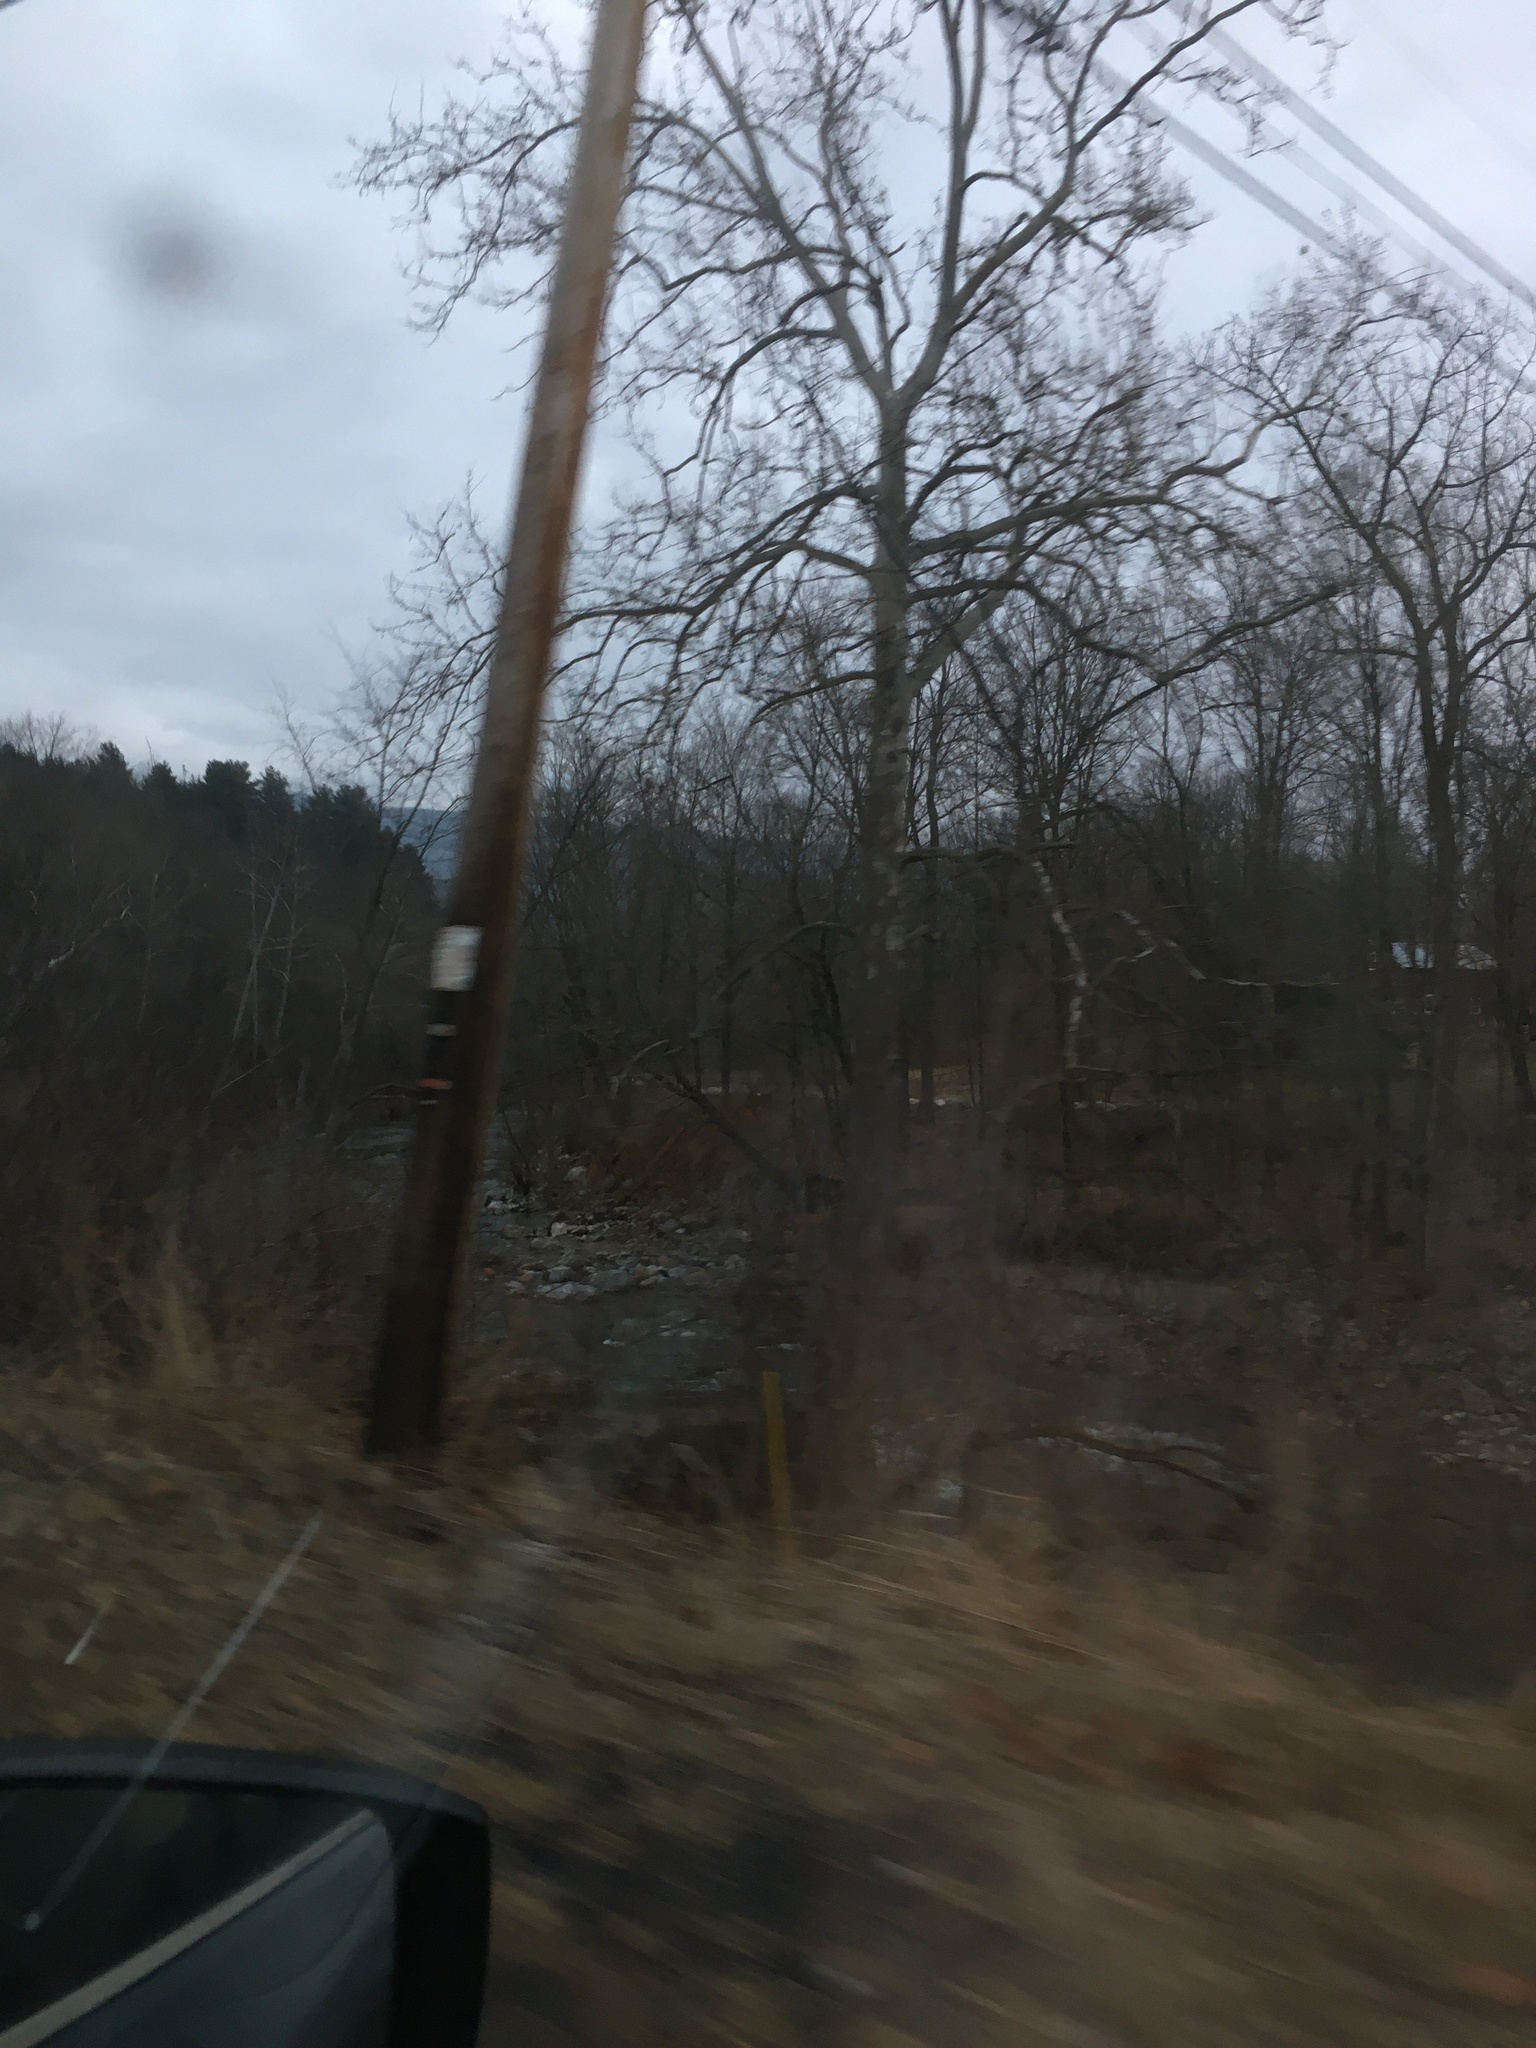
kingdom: Plantae
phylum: Tracheophyta
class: Magnoliopsida
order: Proteales
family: Platanaceae
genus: Platanus
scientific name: Platanus occidentalis
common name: American sycamore
